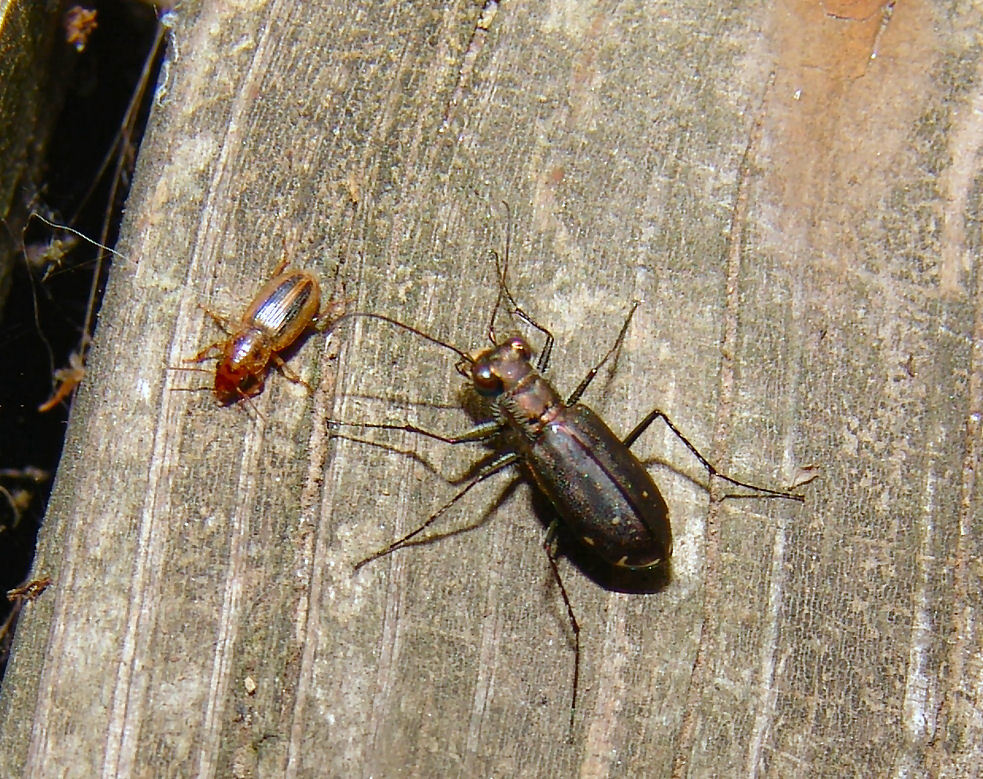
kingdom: Animalia
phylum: Arthropoda
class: Insecta
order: Coleoptera
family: Carabidae
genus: Cicindela
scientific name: Cicindela punctulata
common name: Punctured tiger beetle
